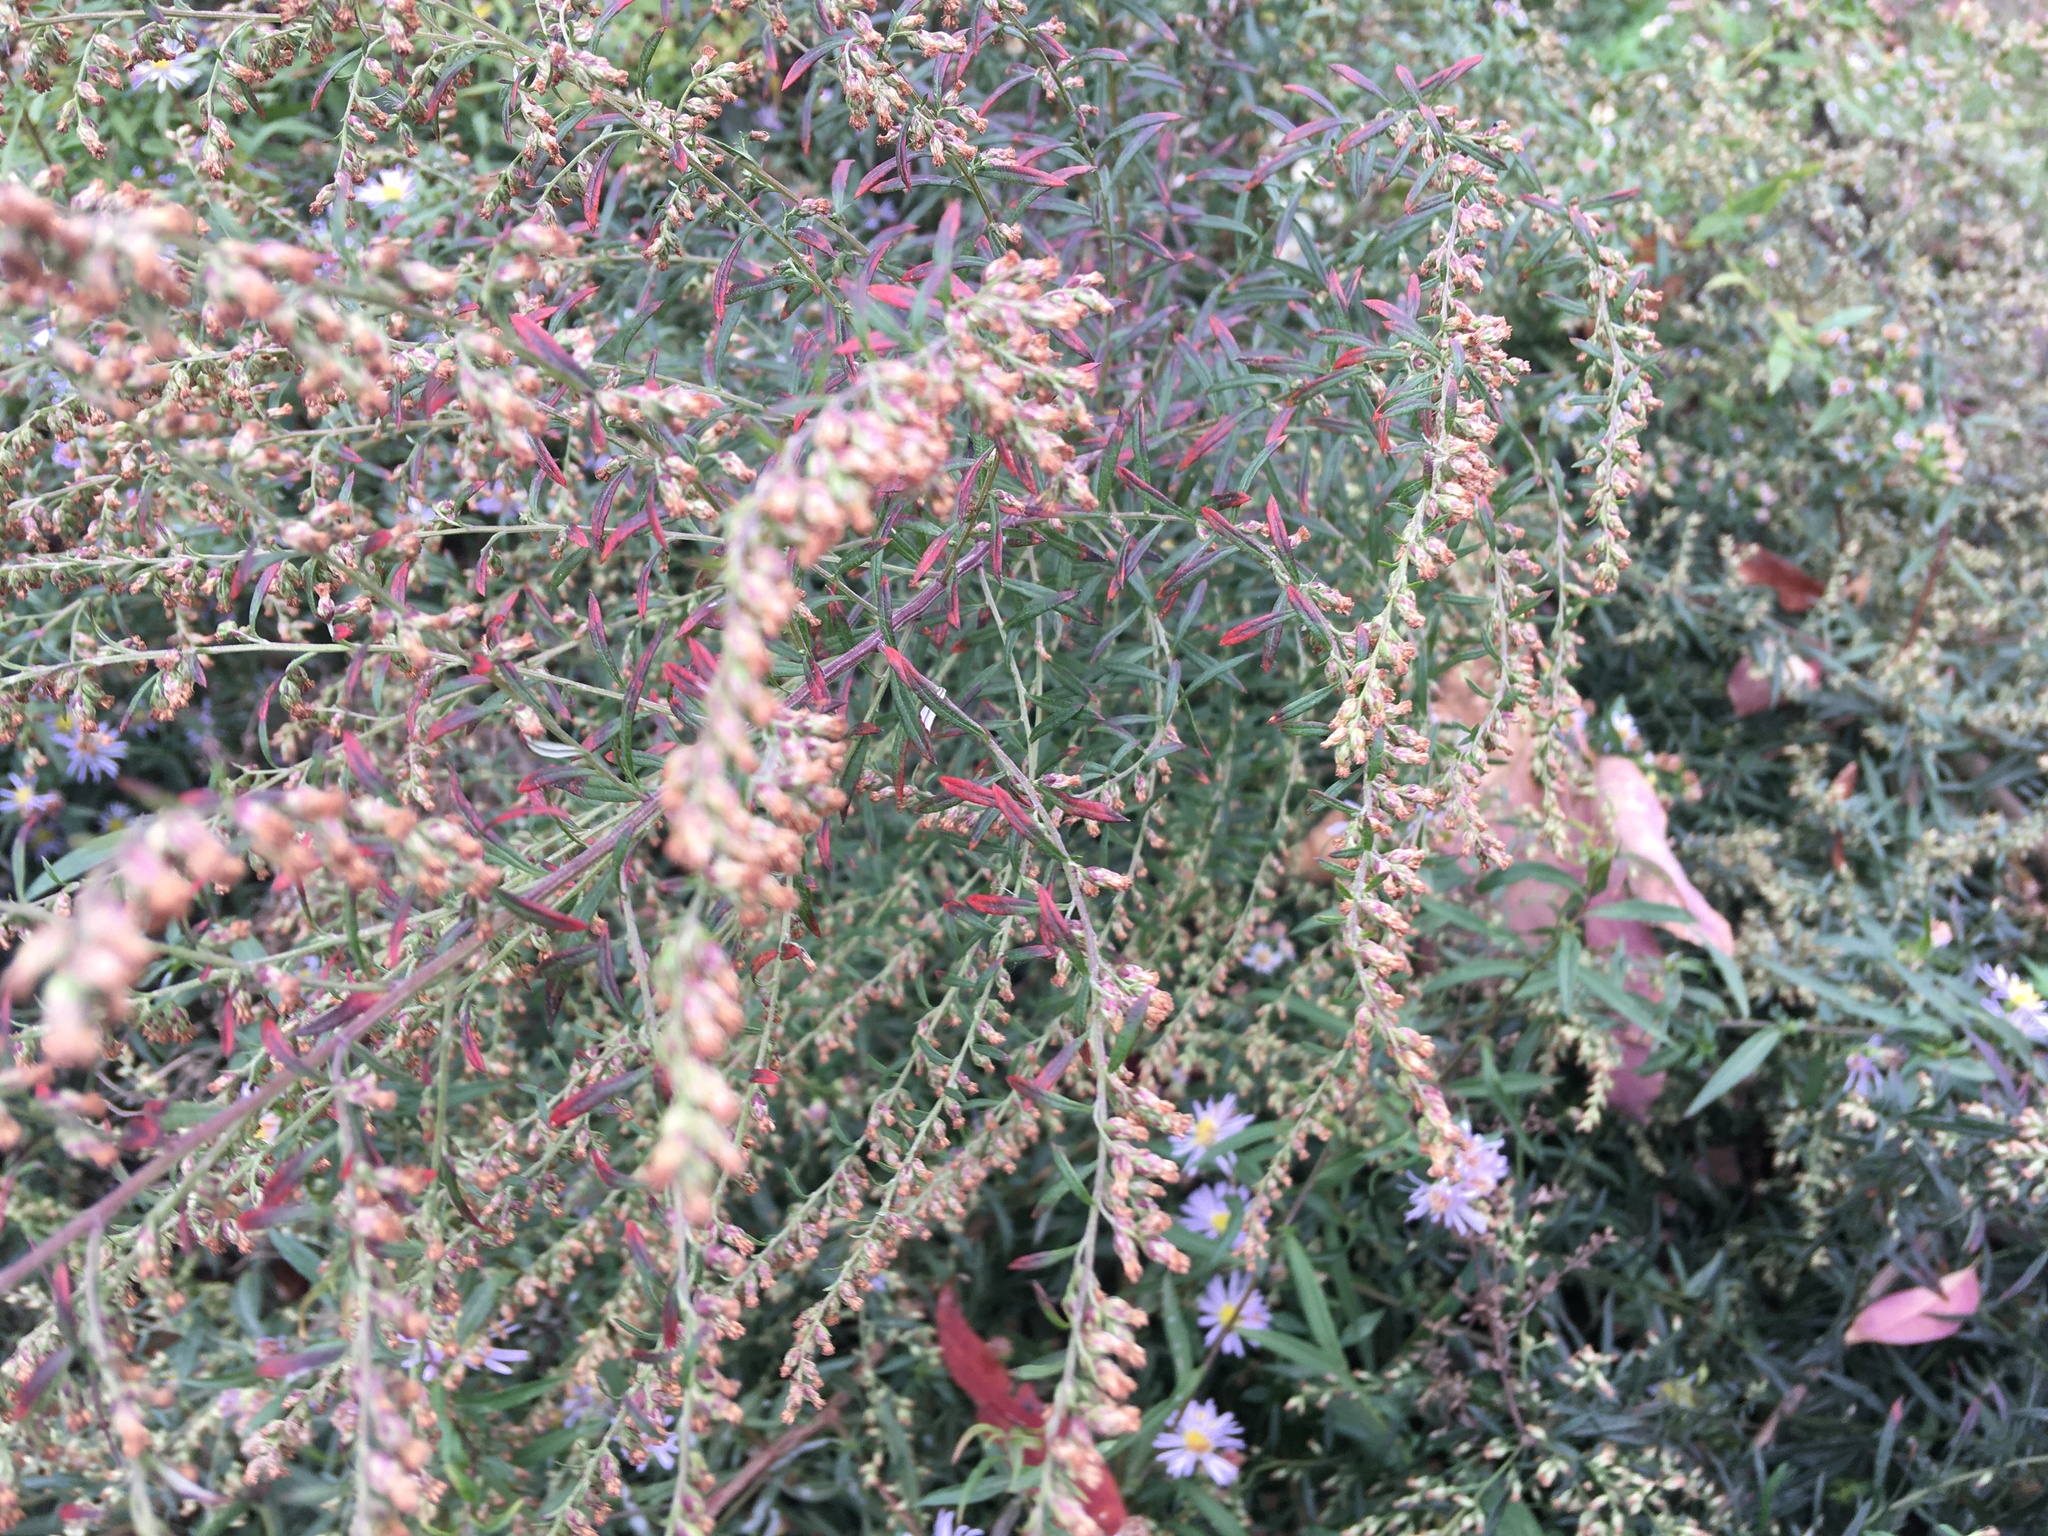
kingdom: Plantae
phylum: Tracheophyta
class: Magnoliopsida
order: Asterales
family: Asteraceae
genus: Artemisia
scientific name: Artemisia vulgaris
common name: Mugwort
